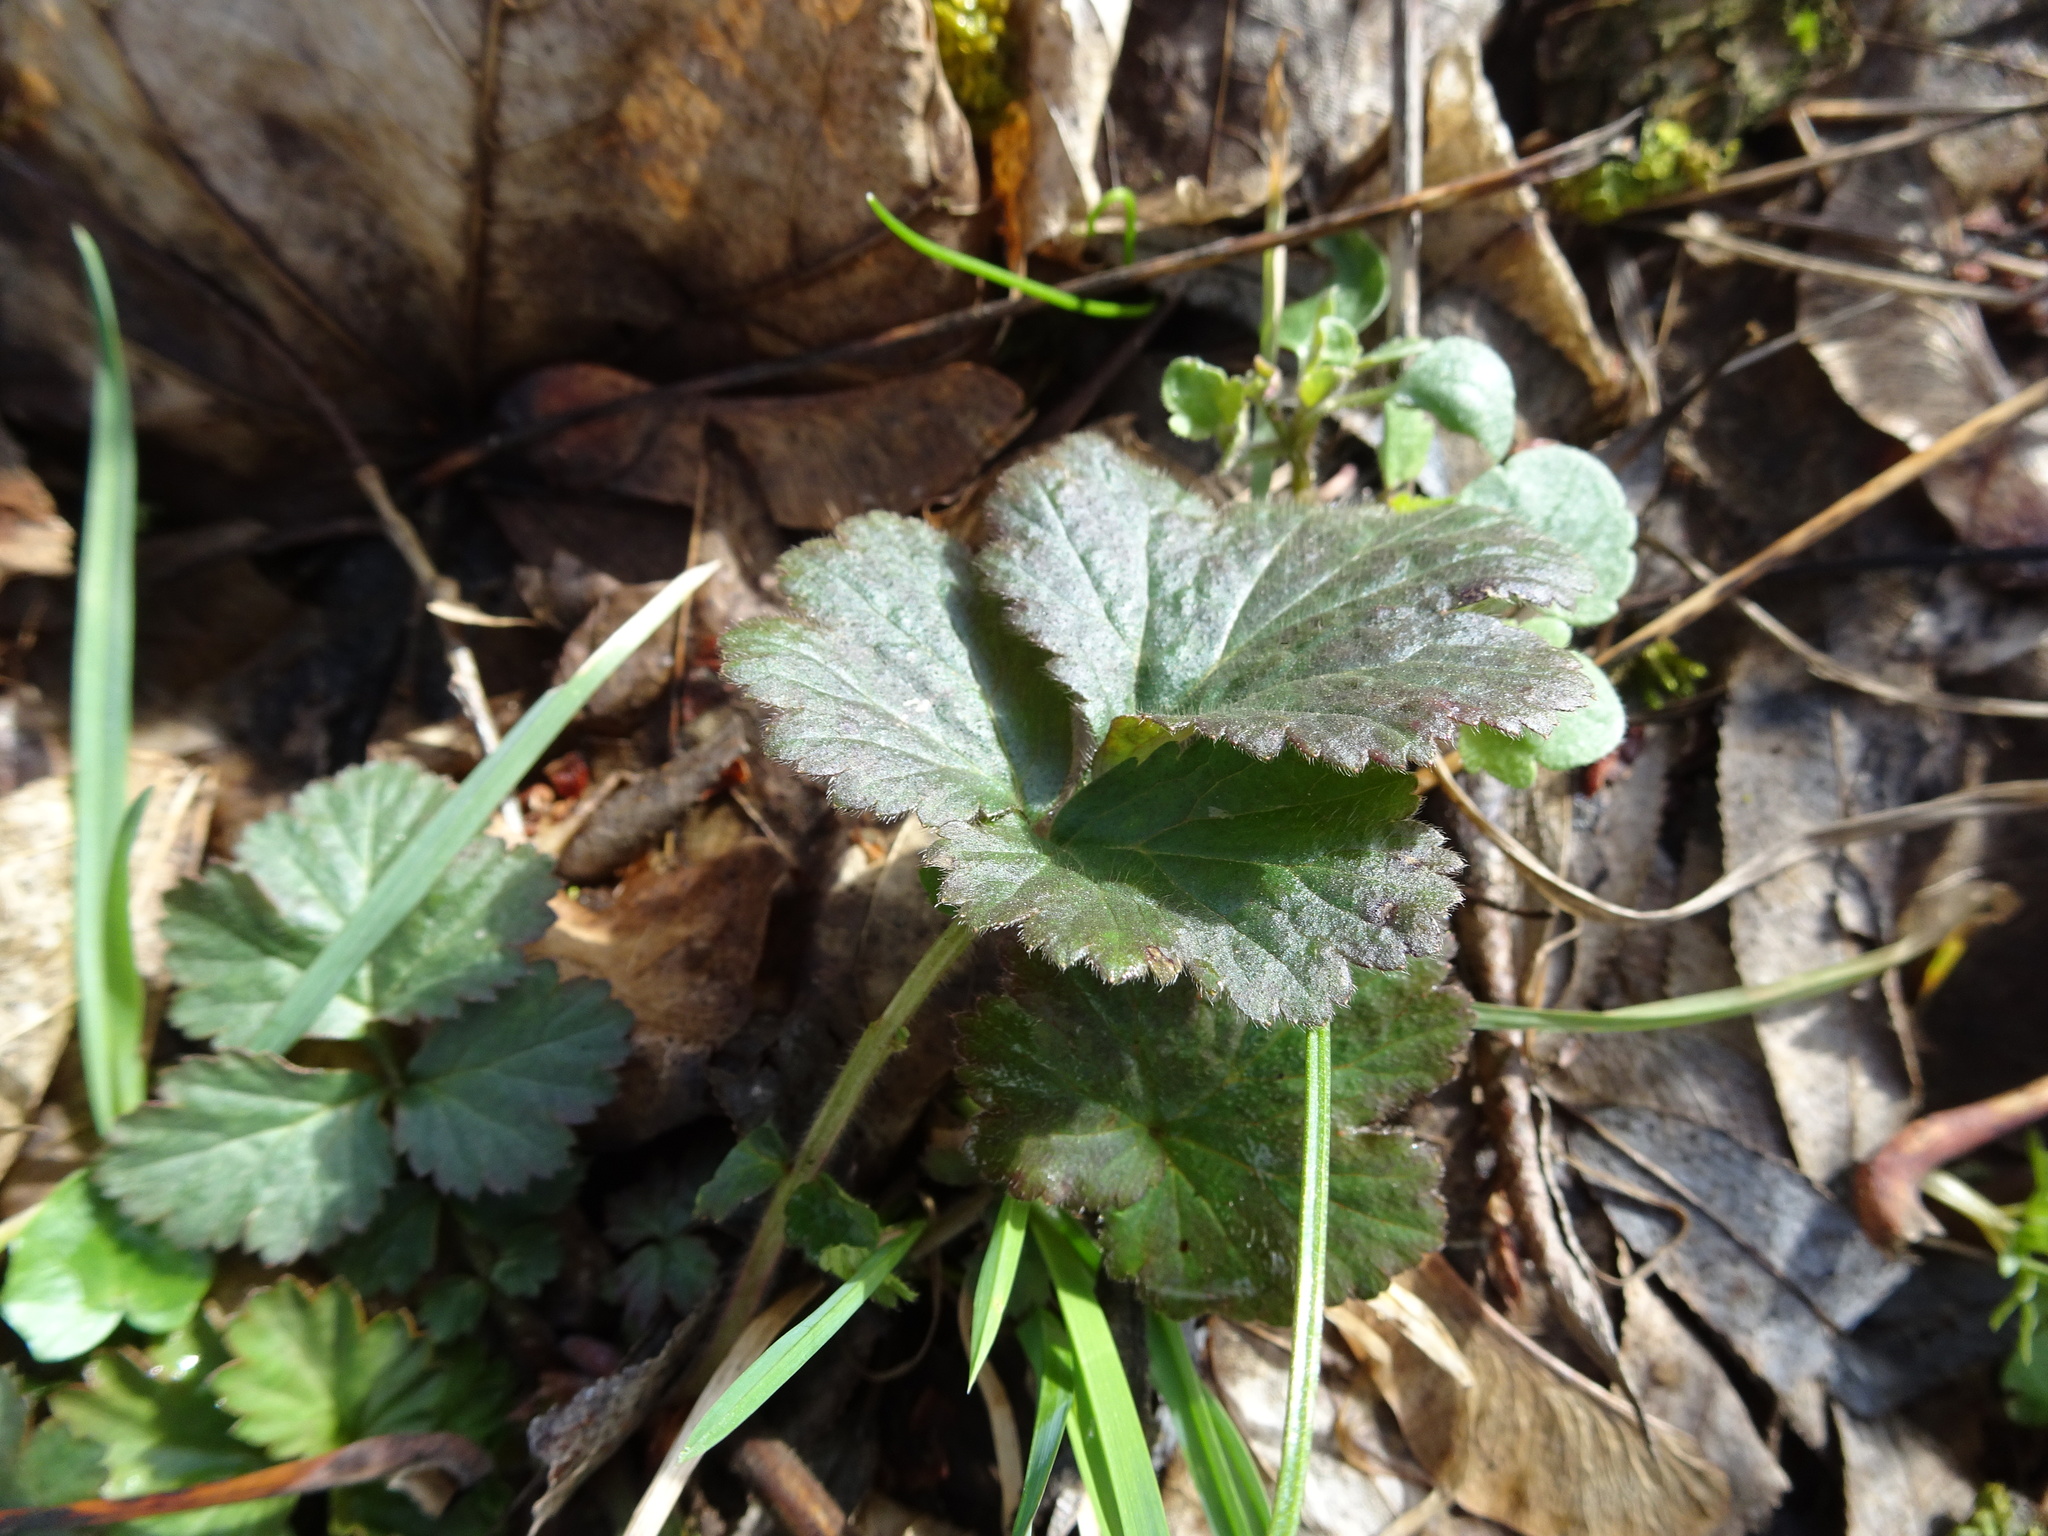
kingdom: Plantae
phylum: Tracheophyta
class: Magnoliopsida
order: Rosales
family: Rosaceae
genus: Geum
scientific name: Geum urbanum
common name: Wood avens
